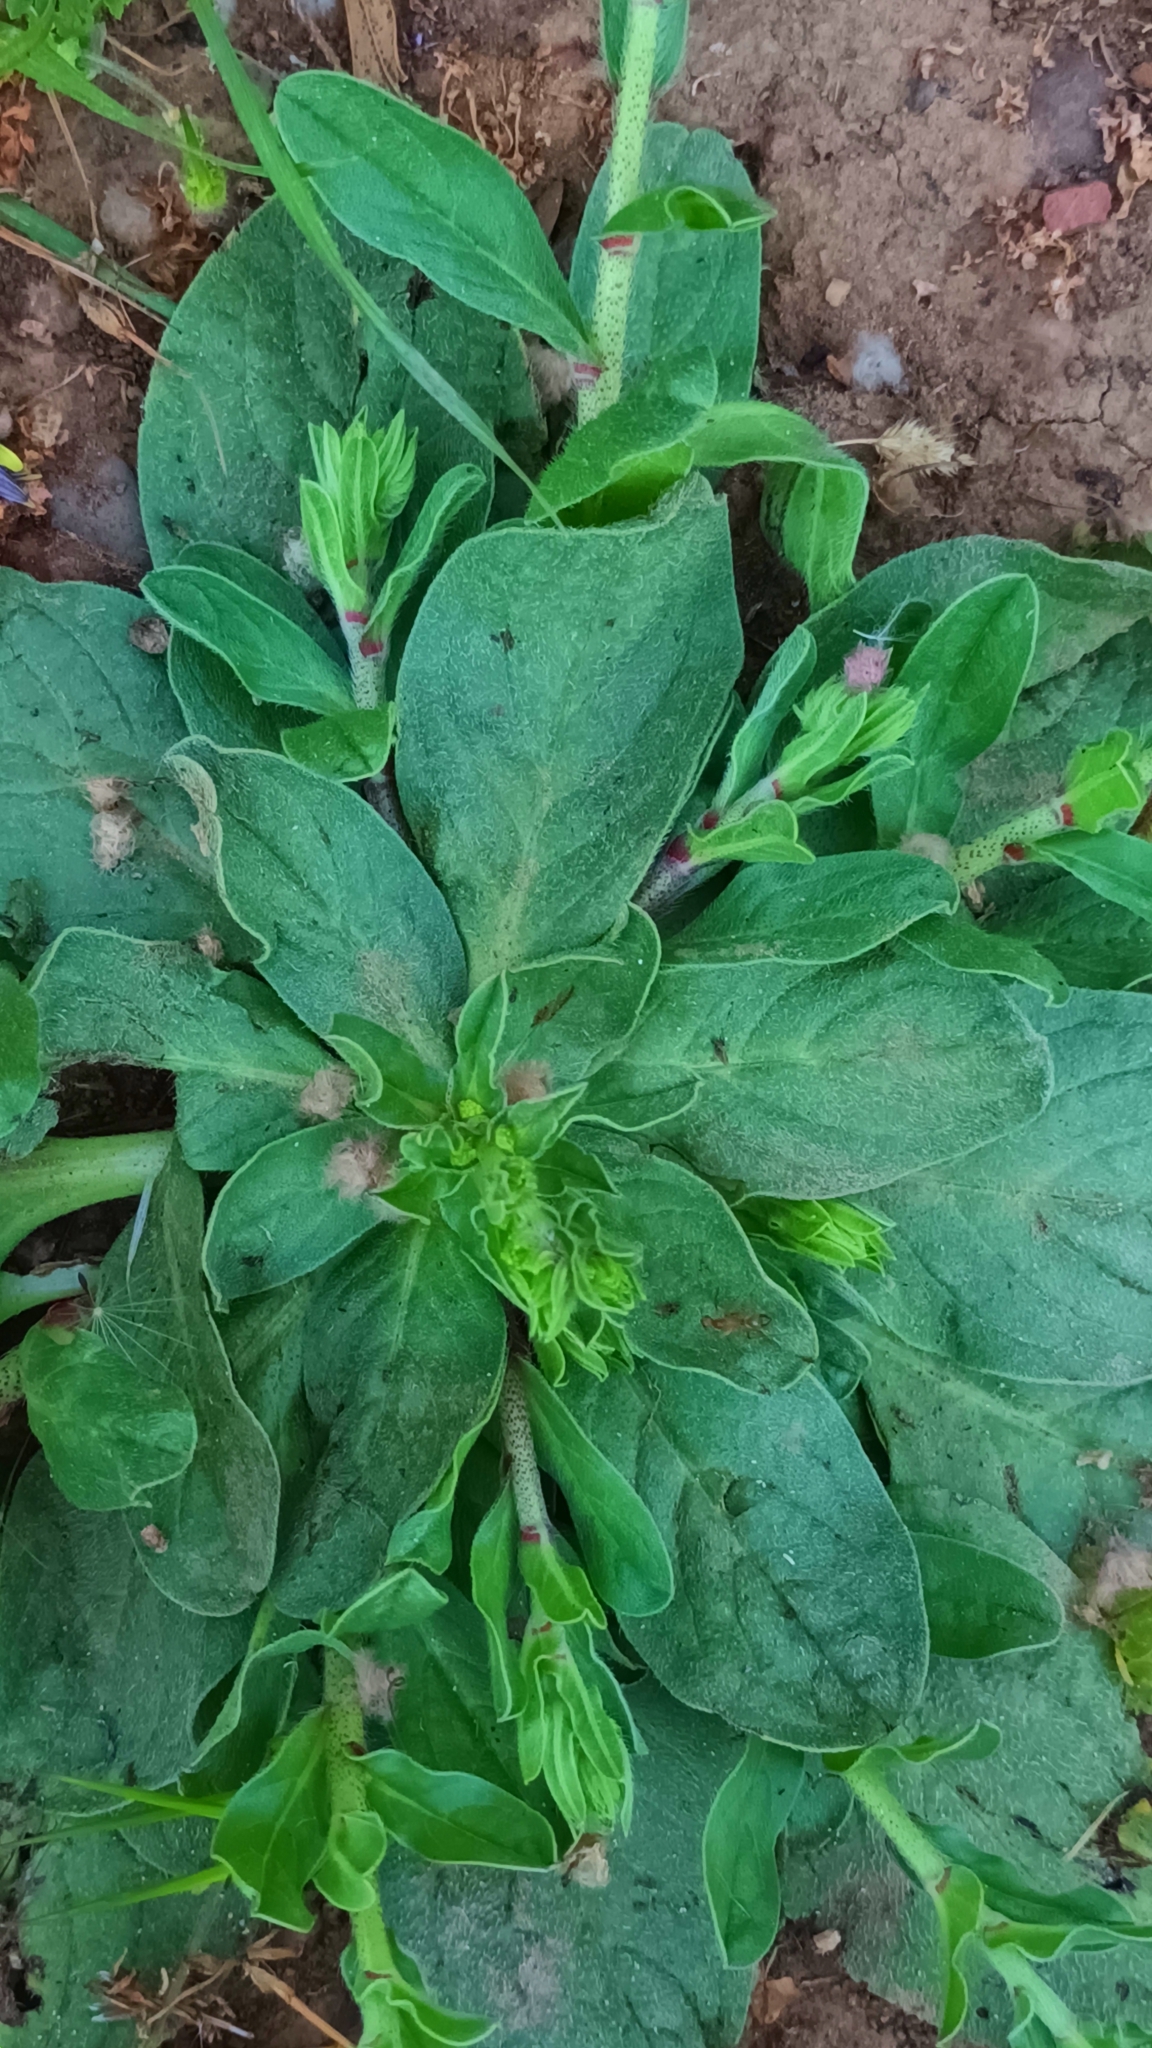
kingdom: Plantae
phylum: Tracheophyta
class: Magnoliopsida
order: Boraginales
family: Boraginaceae
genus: Echium
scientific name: Echium plantagineum
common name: Purple viper's-bugloss
